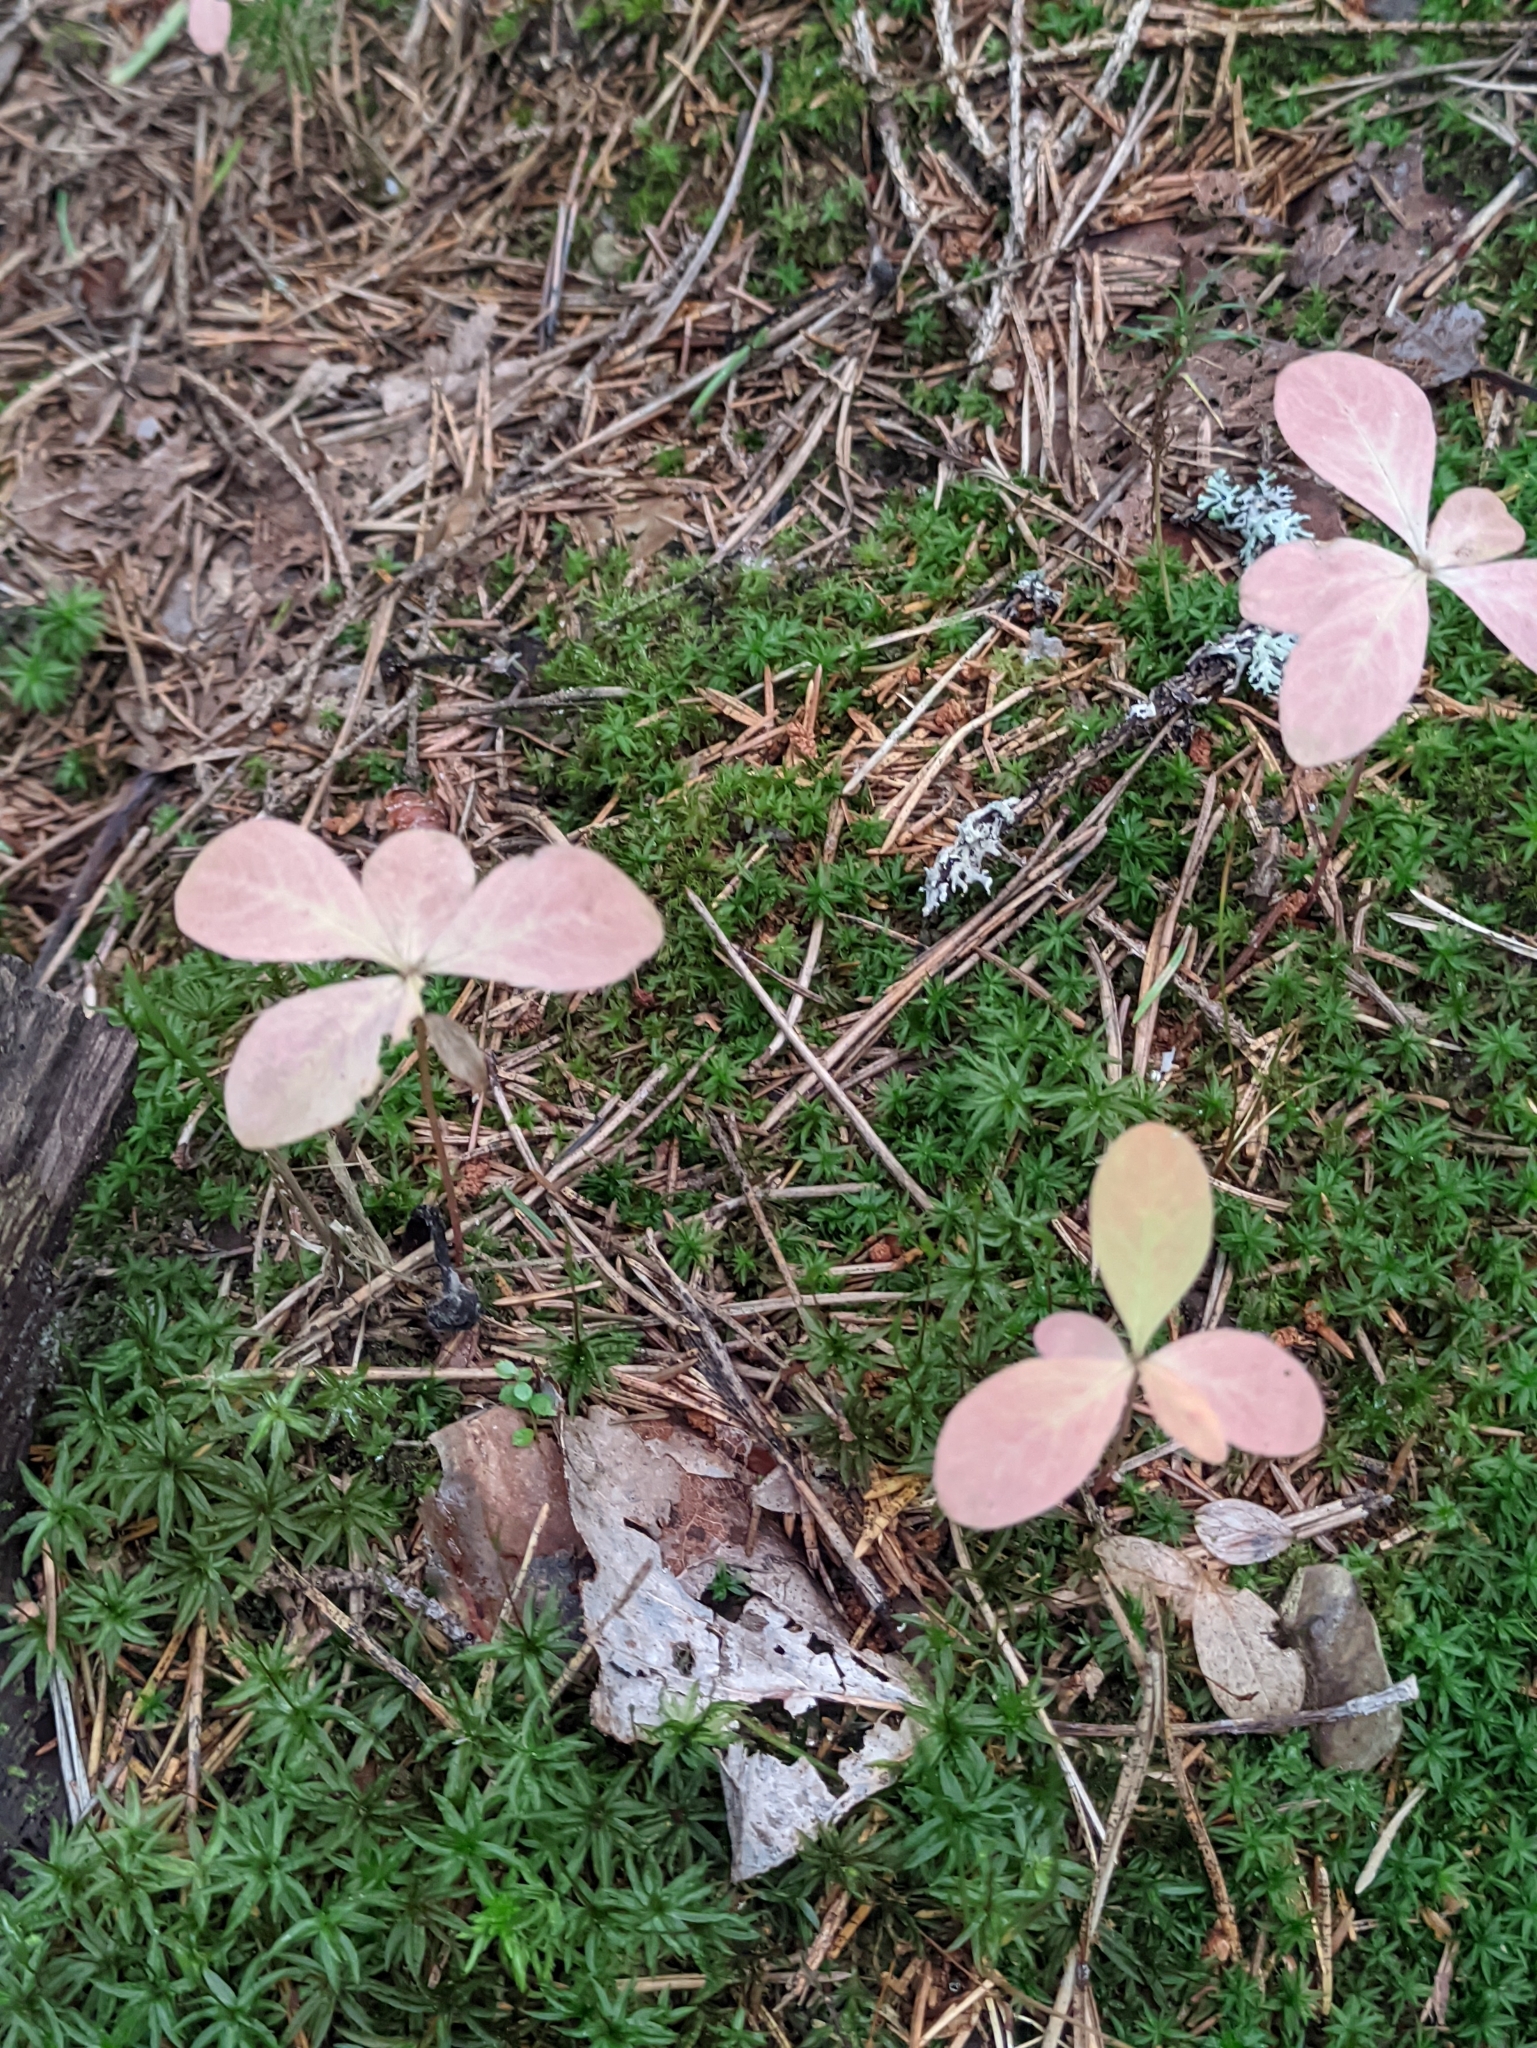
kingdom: Plantae
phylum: Tracheophyta
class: Magnoliopsida
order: Ericales
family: Primulaceae
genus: Lysimachia
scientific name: Lysimachia europaea
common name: Arctic starflower
